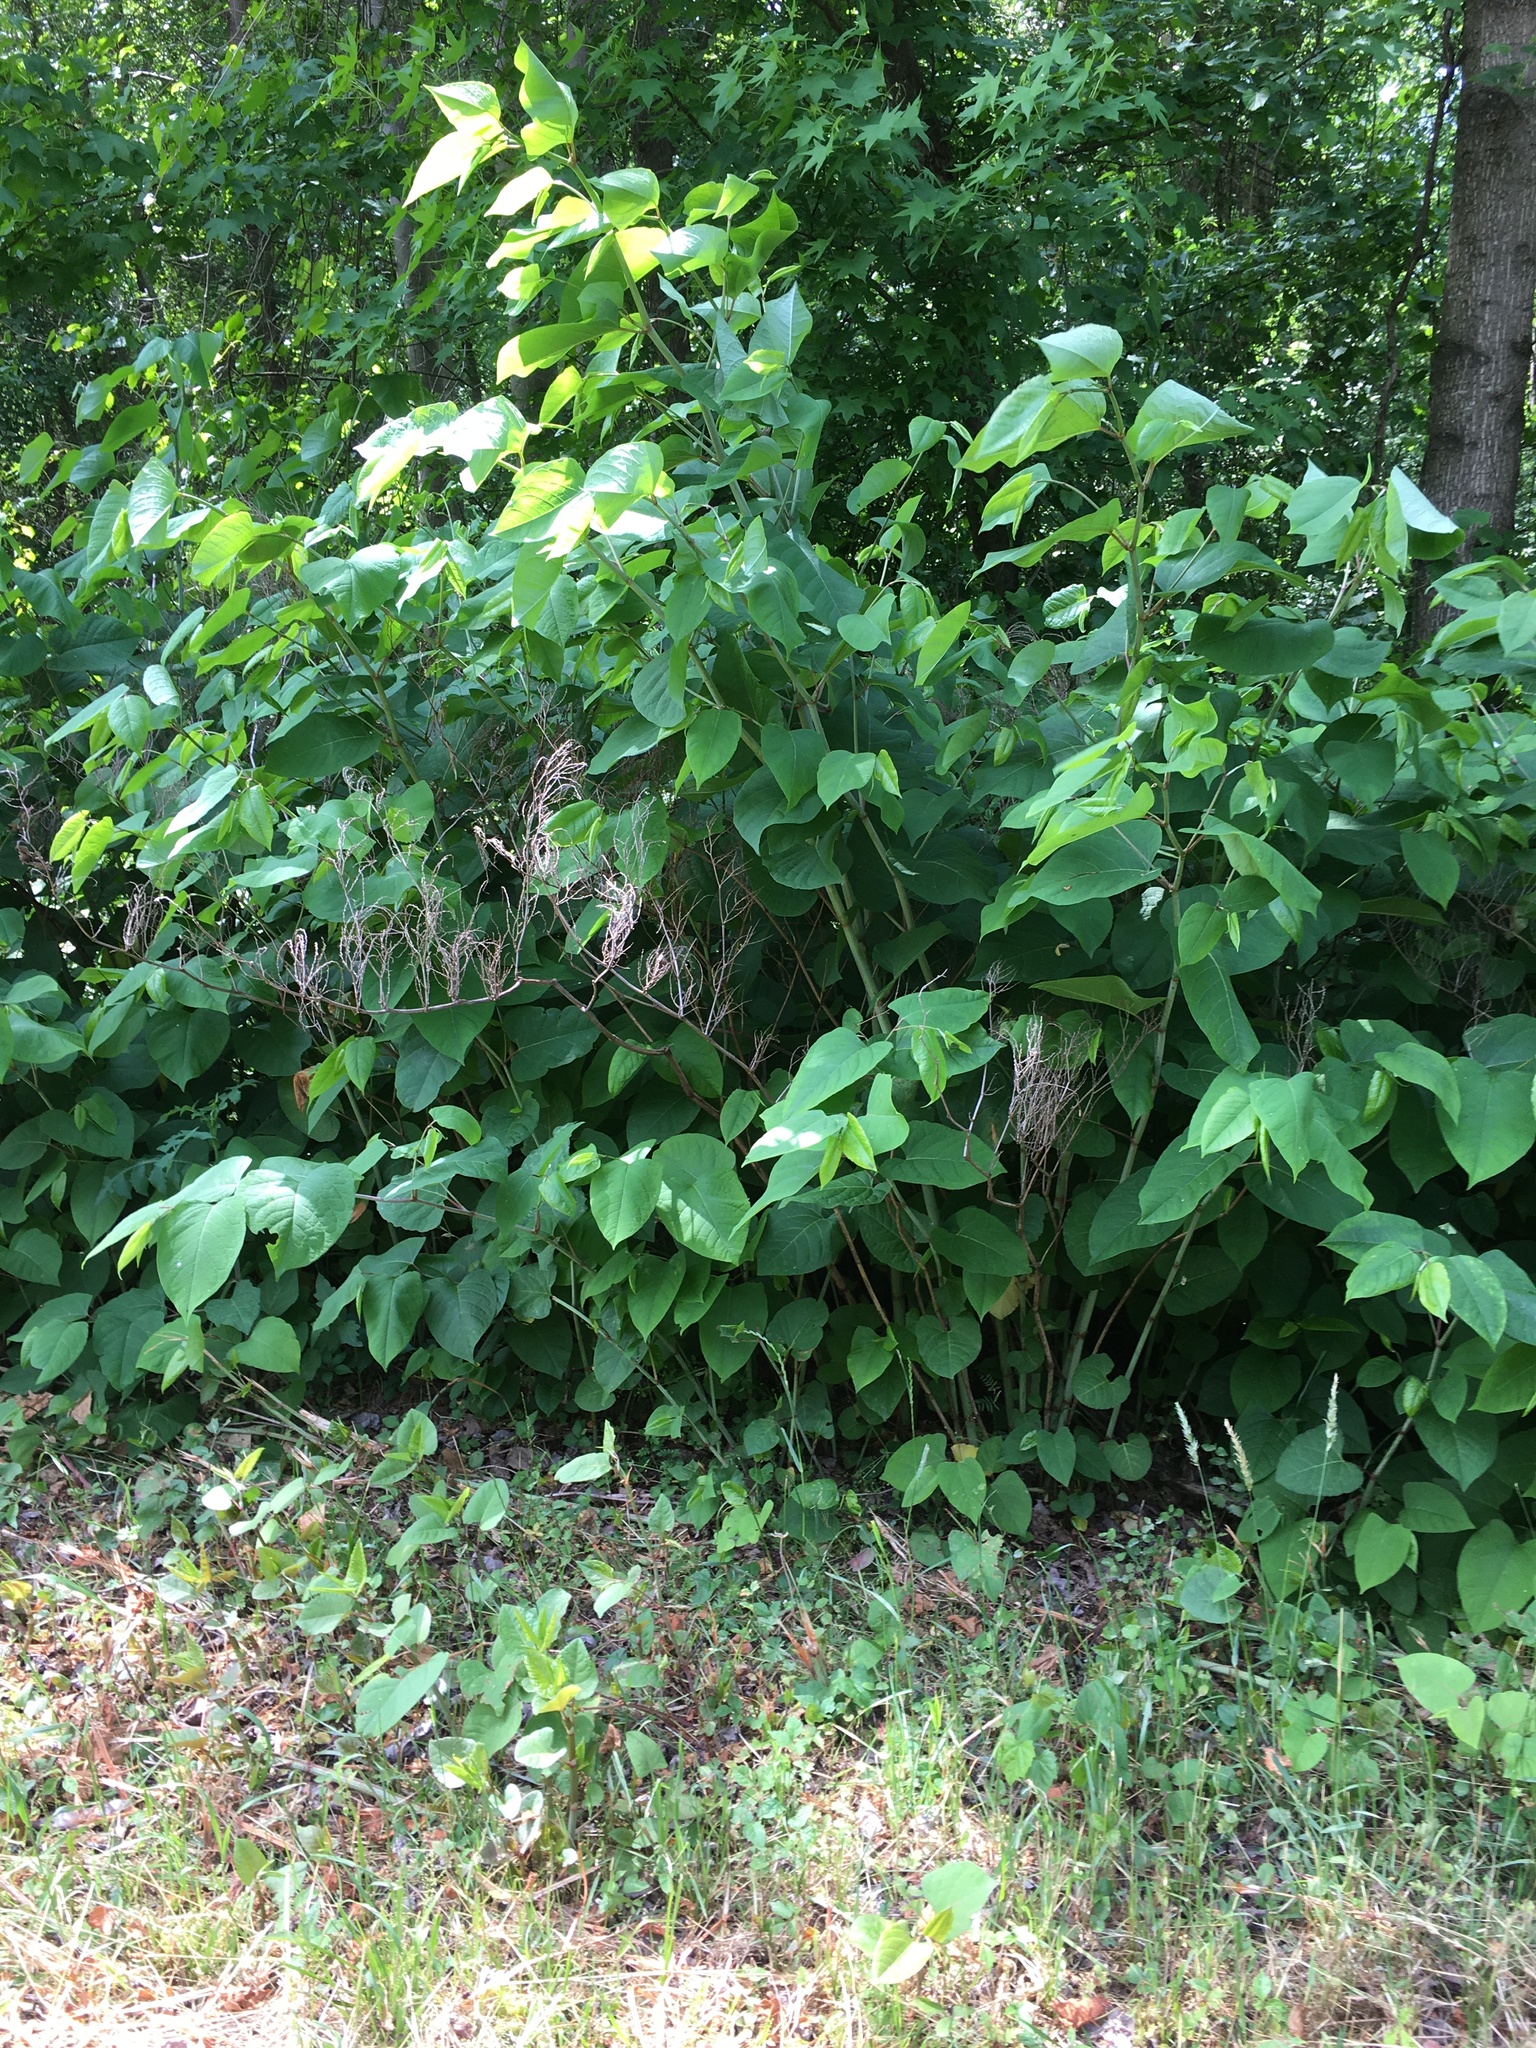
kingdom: Plantae
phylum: Tracheophyta
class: Magnoliopsida
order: Caryophyllales
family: Polygonaceae
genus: Reynoutria
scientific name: Reynoutria japonica
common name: Japanese knotweed
